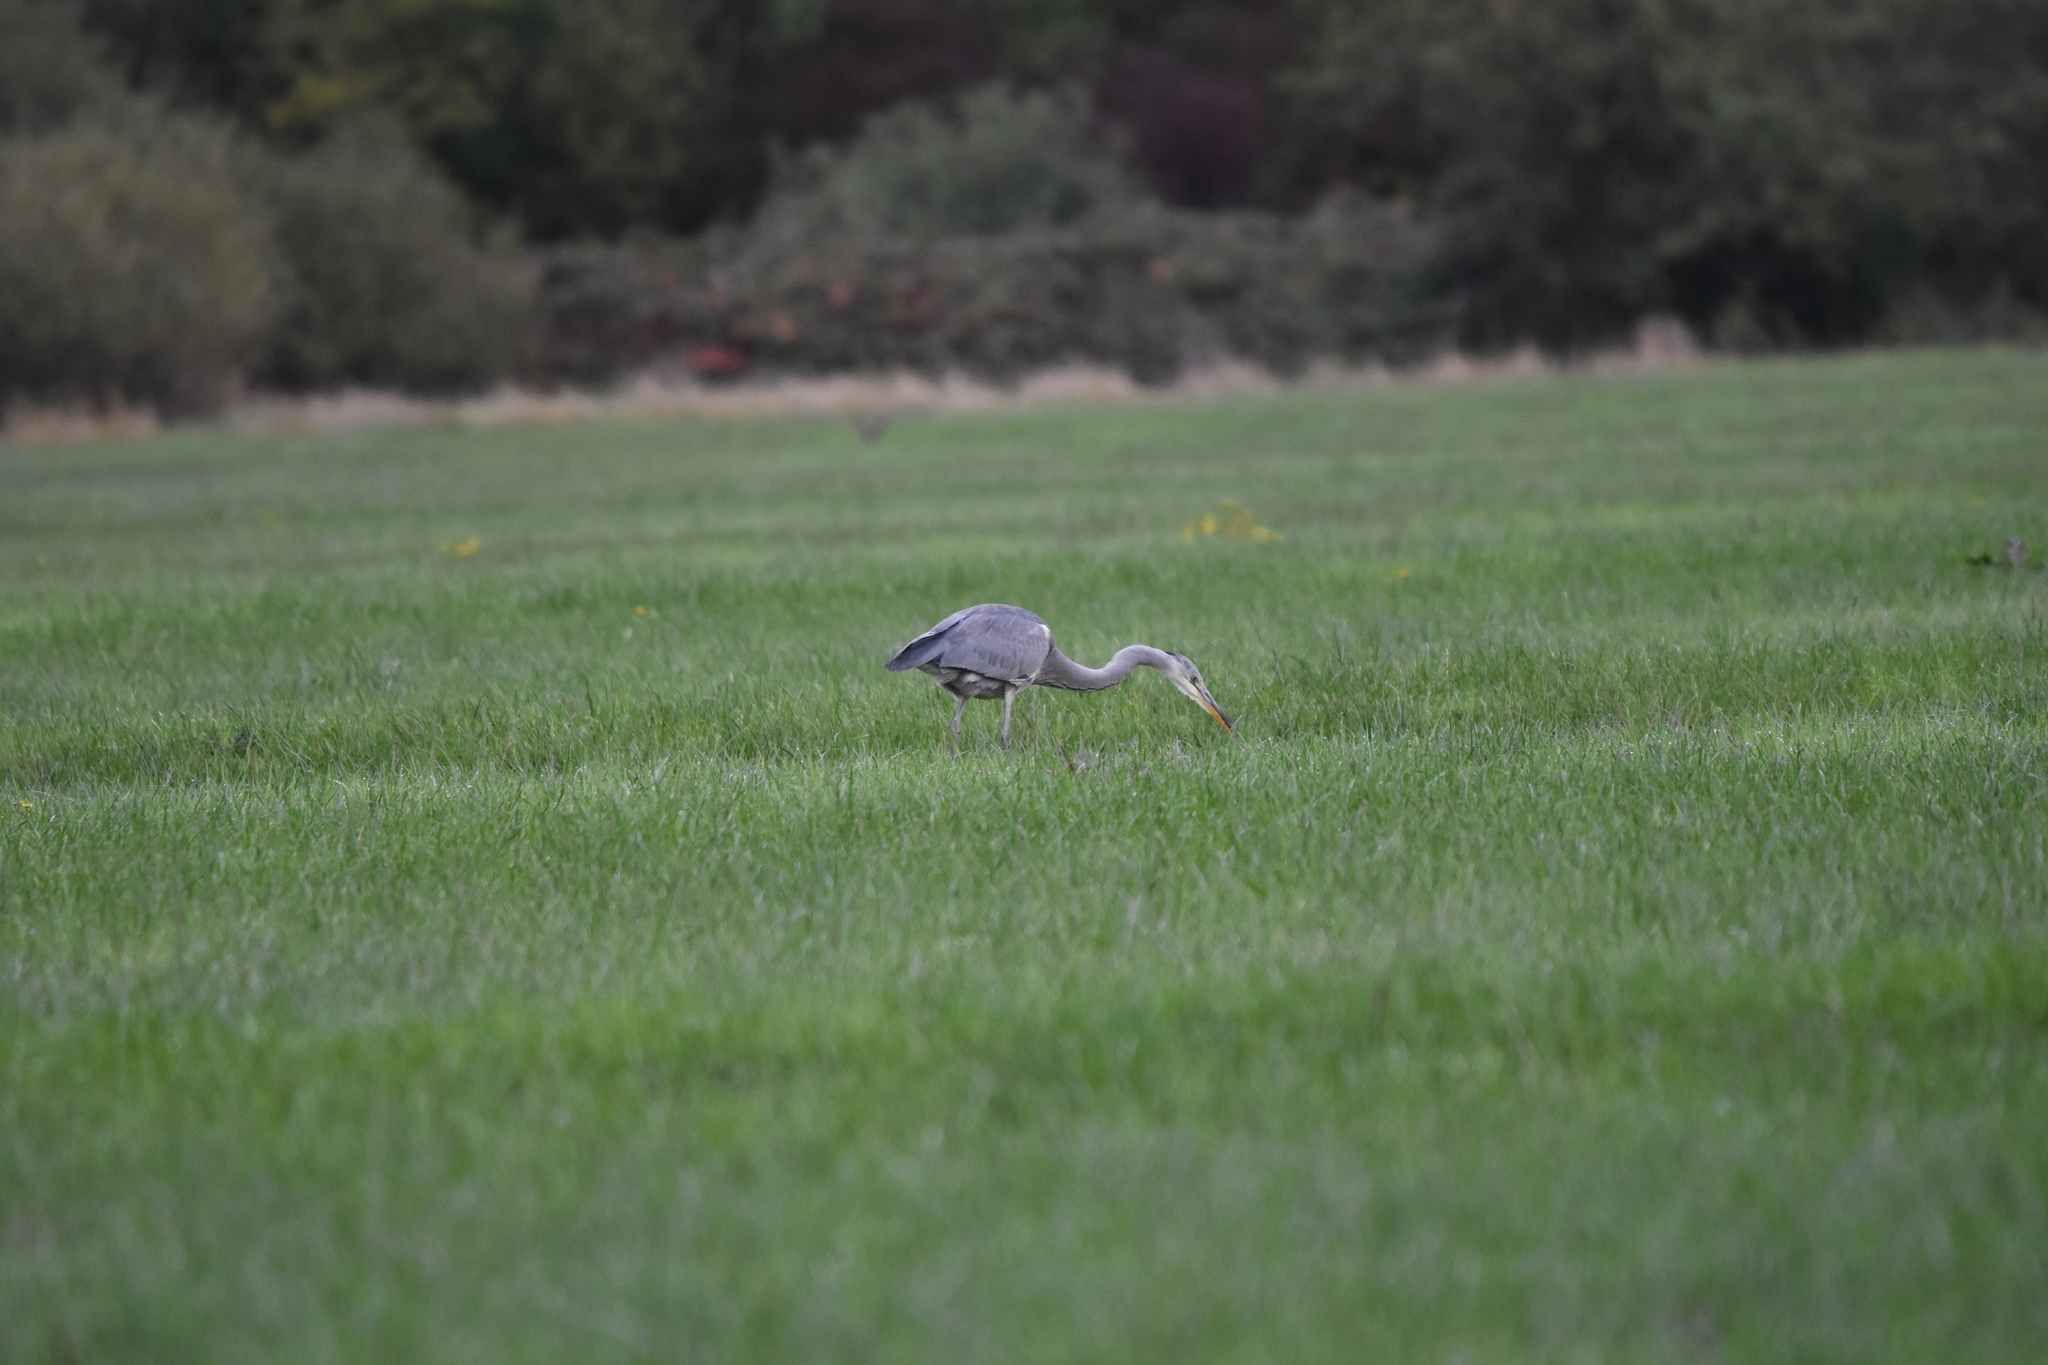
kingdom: Animalia
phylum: Chordata
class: Aves
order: Pelecaniformes
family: Ardeidae
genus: Ardea
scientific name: Ardea cinerea
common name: Grey heron
